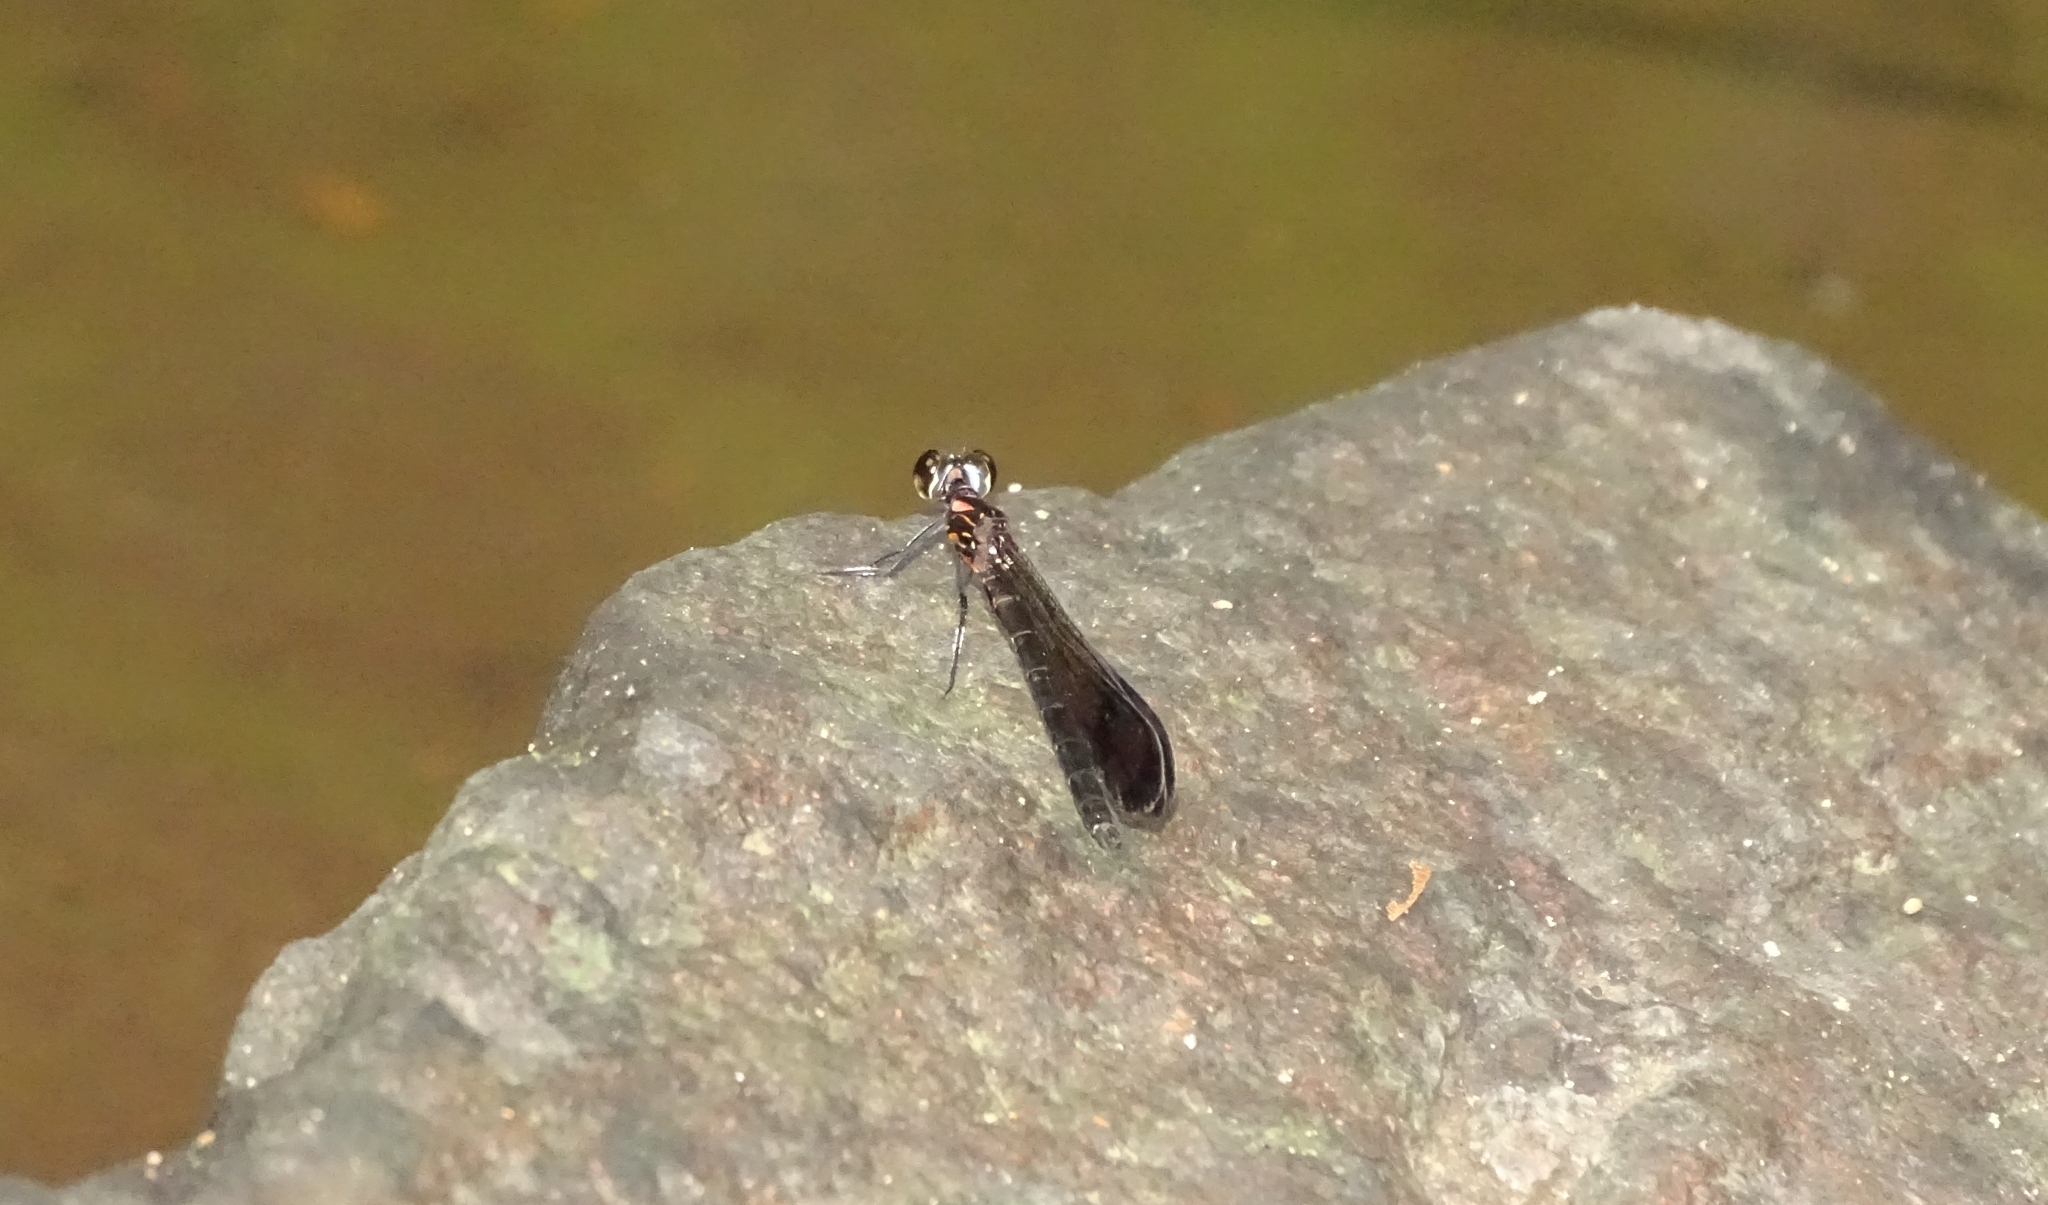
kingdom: Animalia
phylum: Arthropoda
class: Insecta
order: Odonata
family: Chlorocyphidae
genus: Heliocypha
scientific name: Heliocypha bisignata
